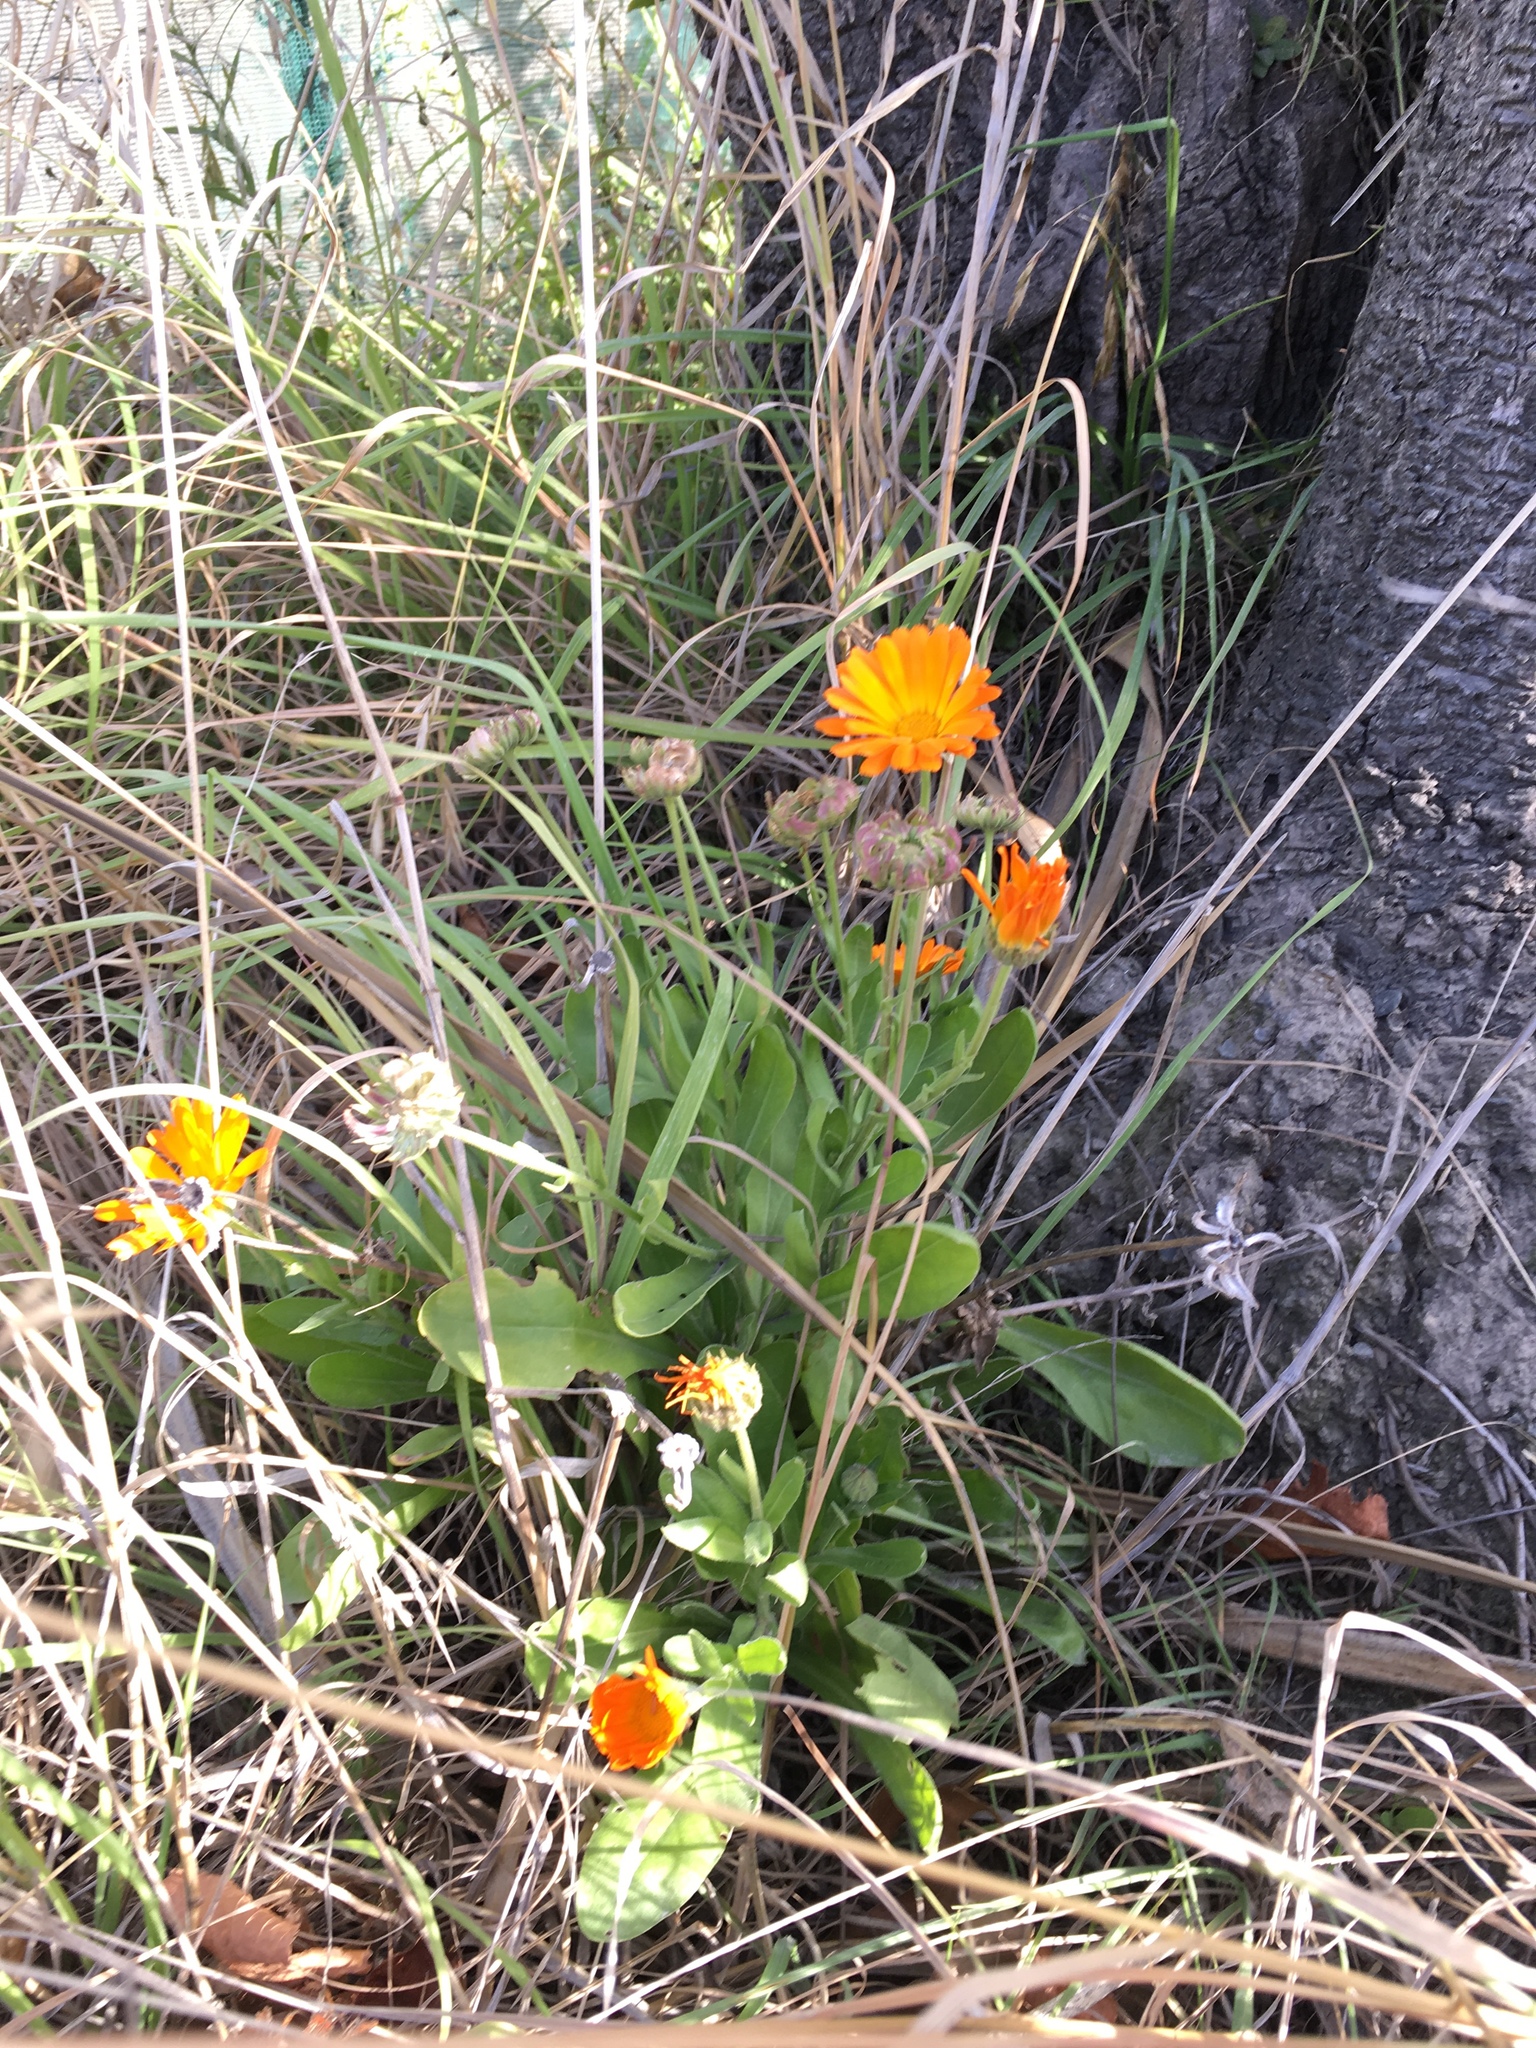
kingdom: Plantae
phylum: Tracheophyta
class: Magnoliopsida
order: Asterales
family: Asteraceae
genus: Calendula
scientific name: Calendula officinalis
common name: Pot marigold
